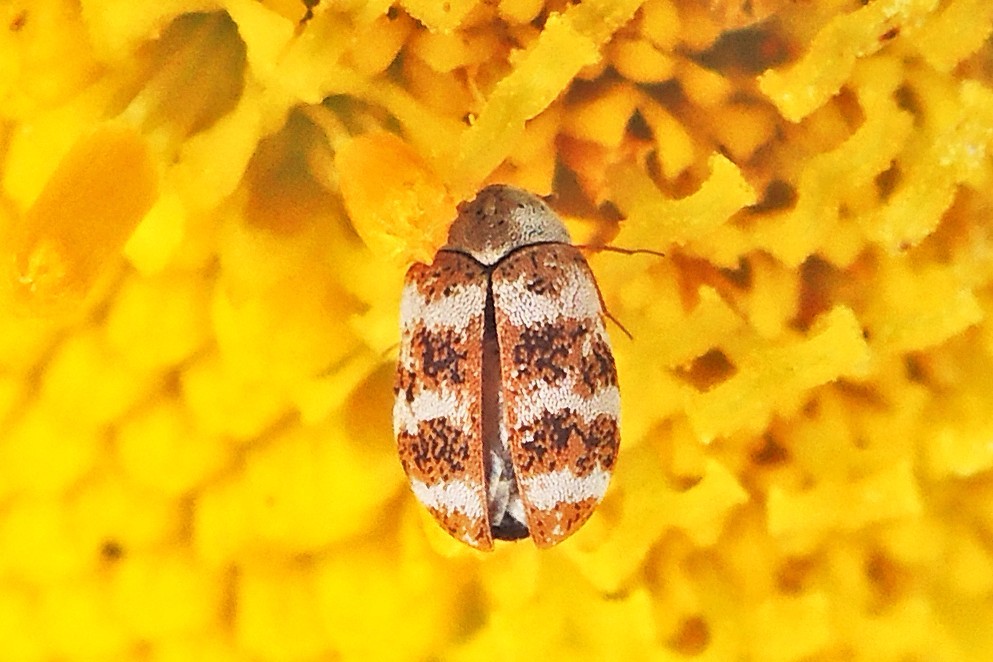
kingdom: Animalia
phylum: Arthropoda
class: Insecta
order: Coleoptera
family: Dermestidae
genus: Anthrenus
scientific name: Anthrenus coloratus
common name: Auger beetle
